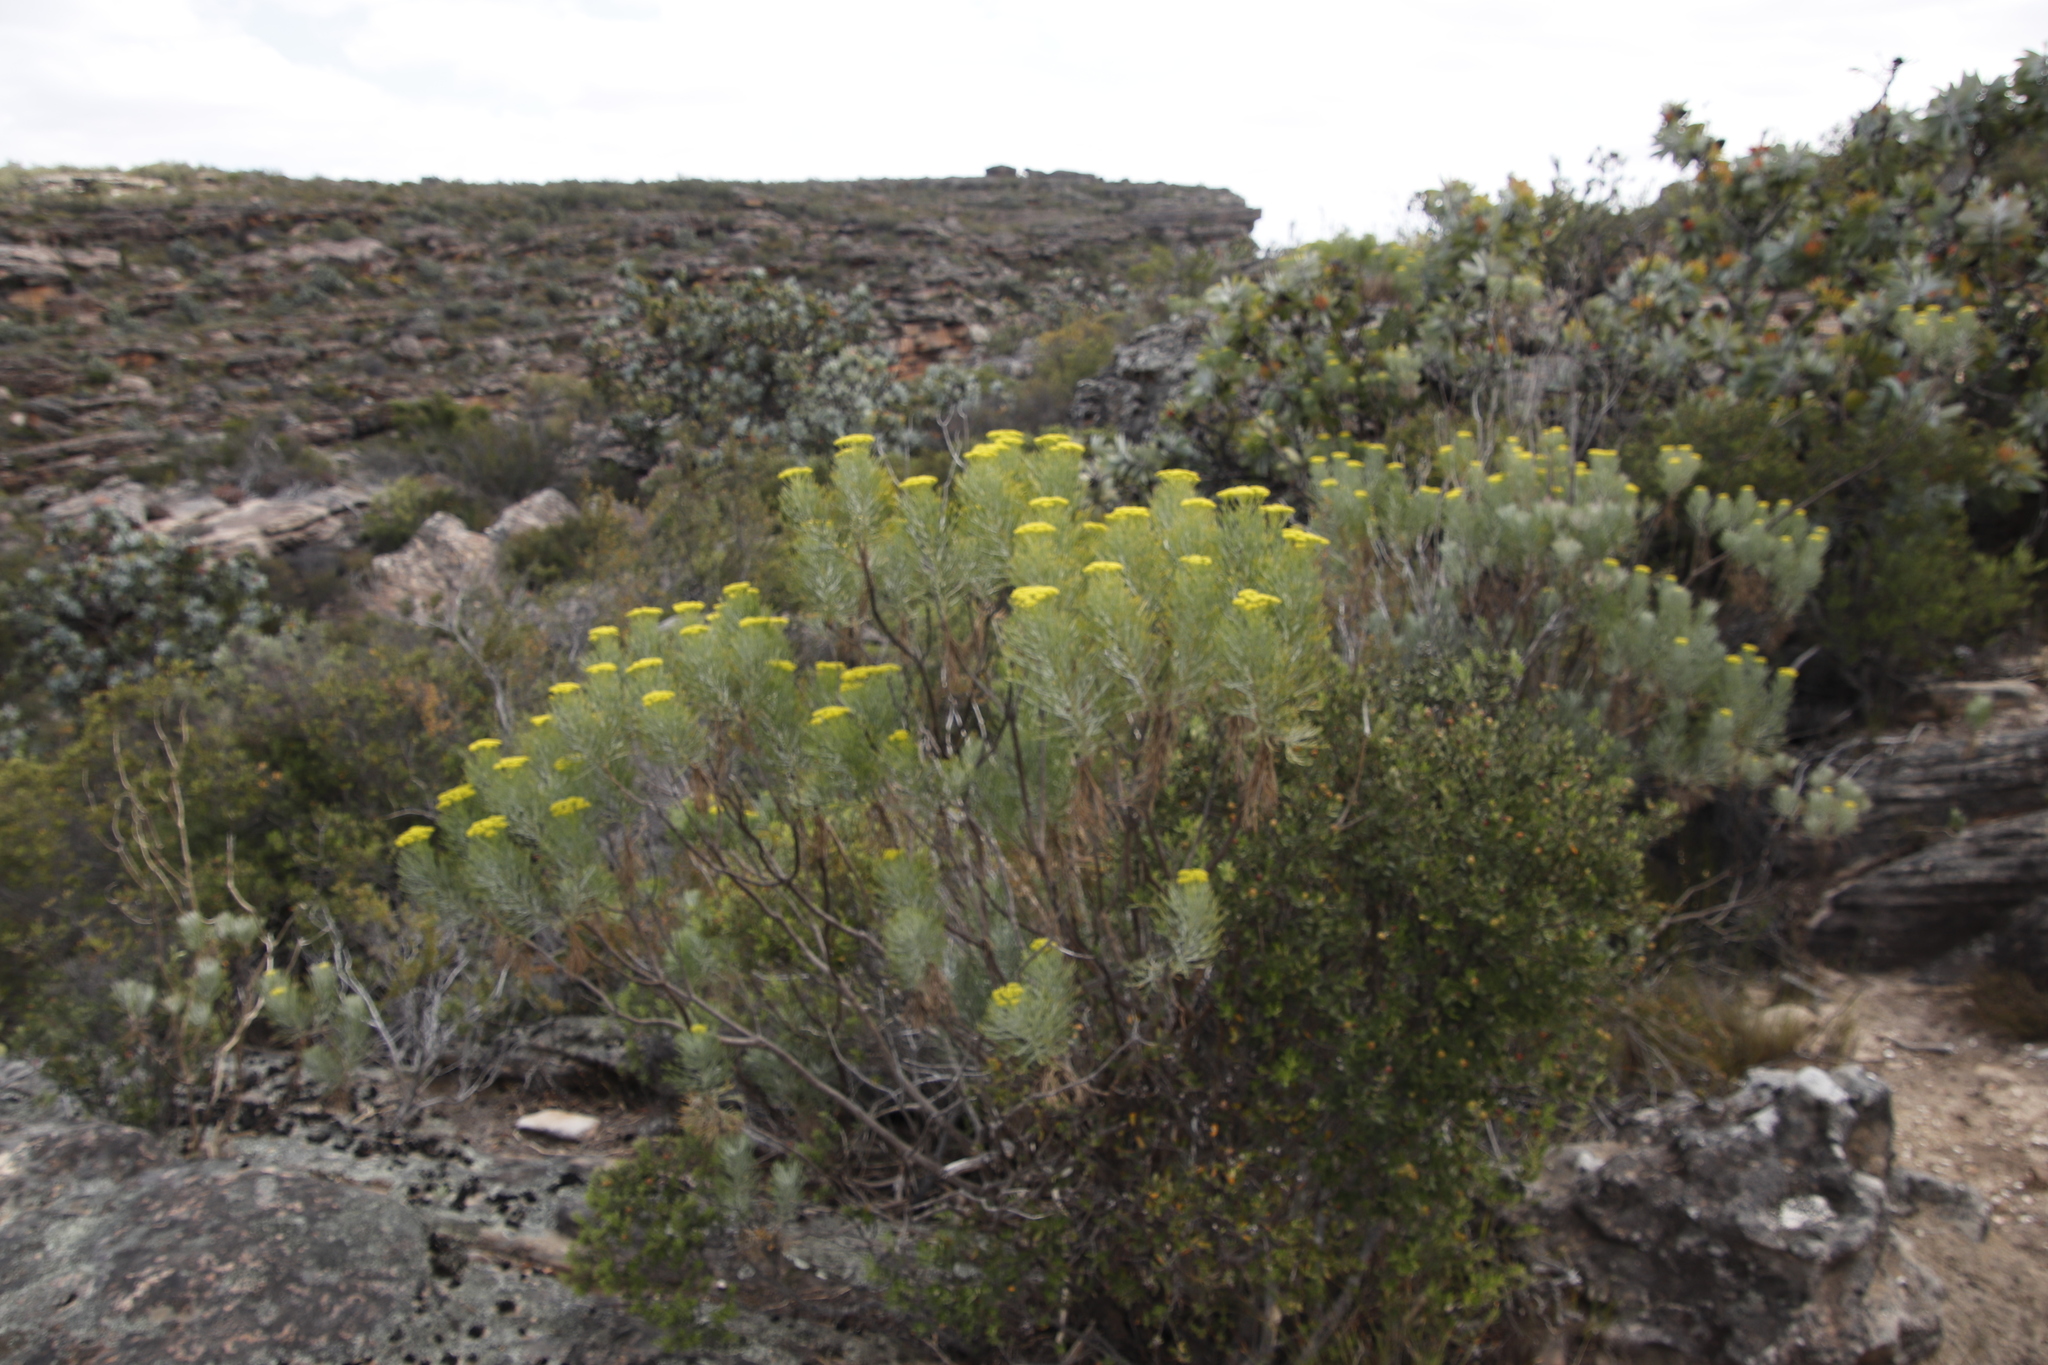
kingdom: Plantae
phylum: Tracheophyta
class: Magnoliopsida
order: Asterales
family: Asteraceae
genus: Hymenolepis
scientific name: Hymenolepis crithmifolia
